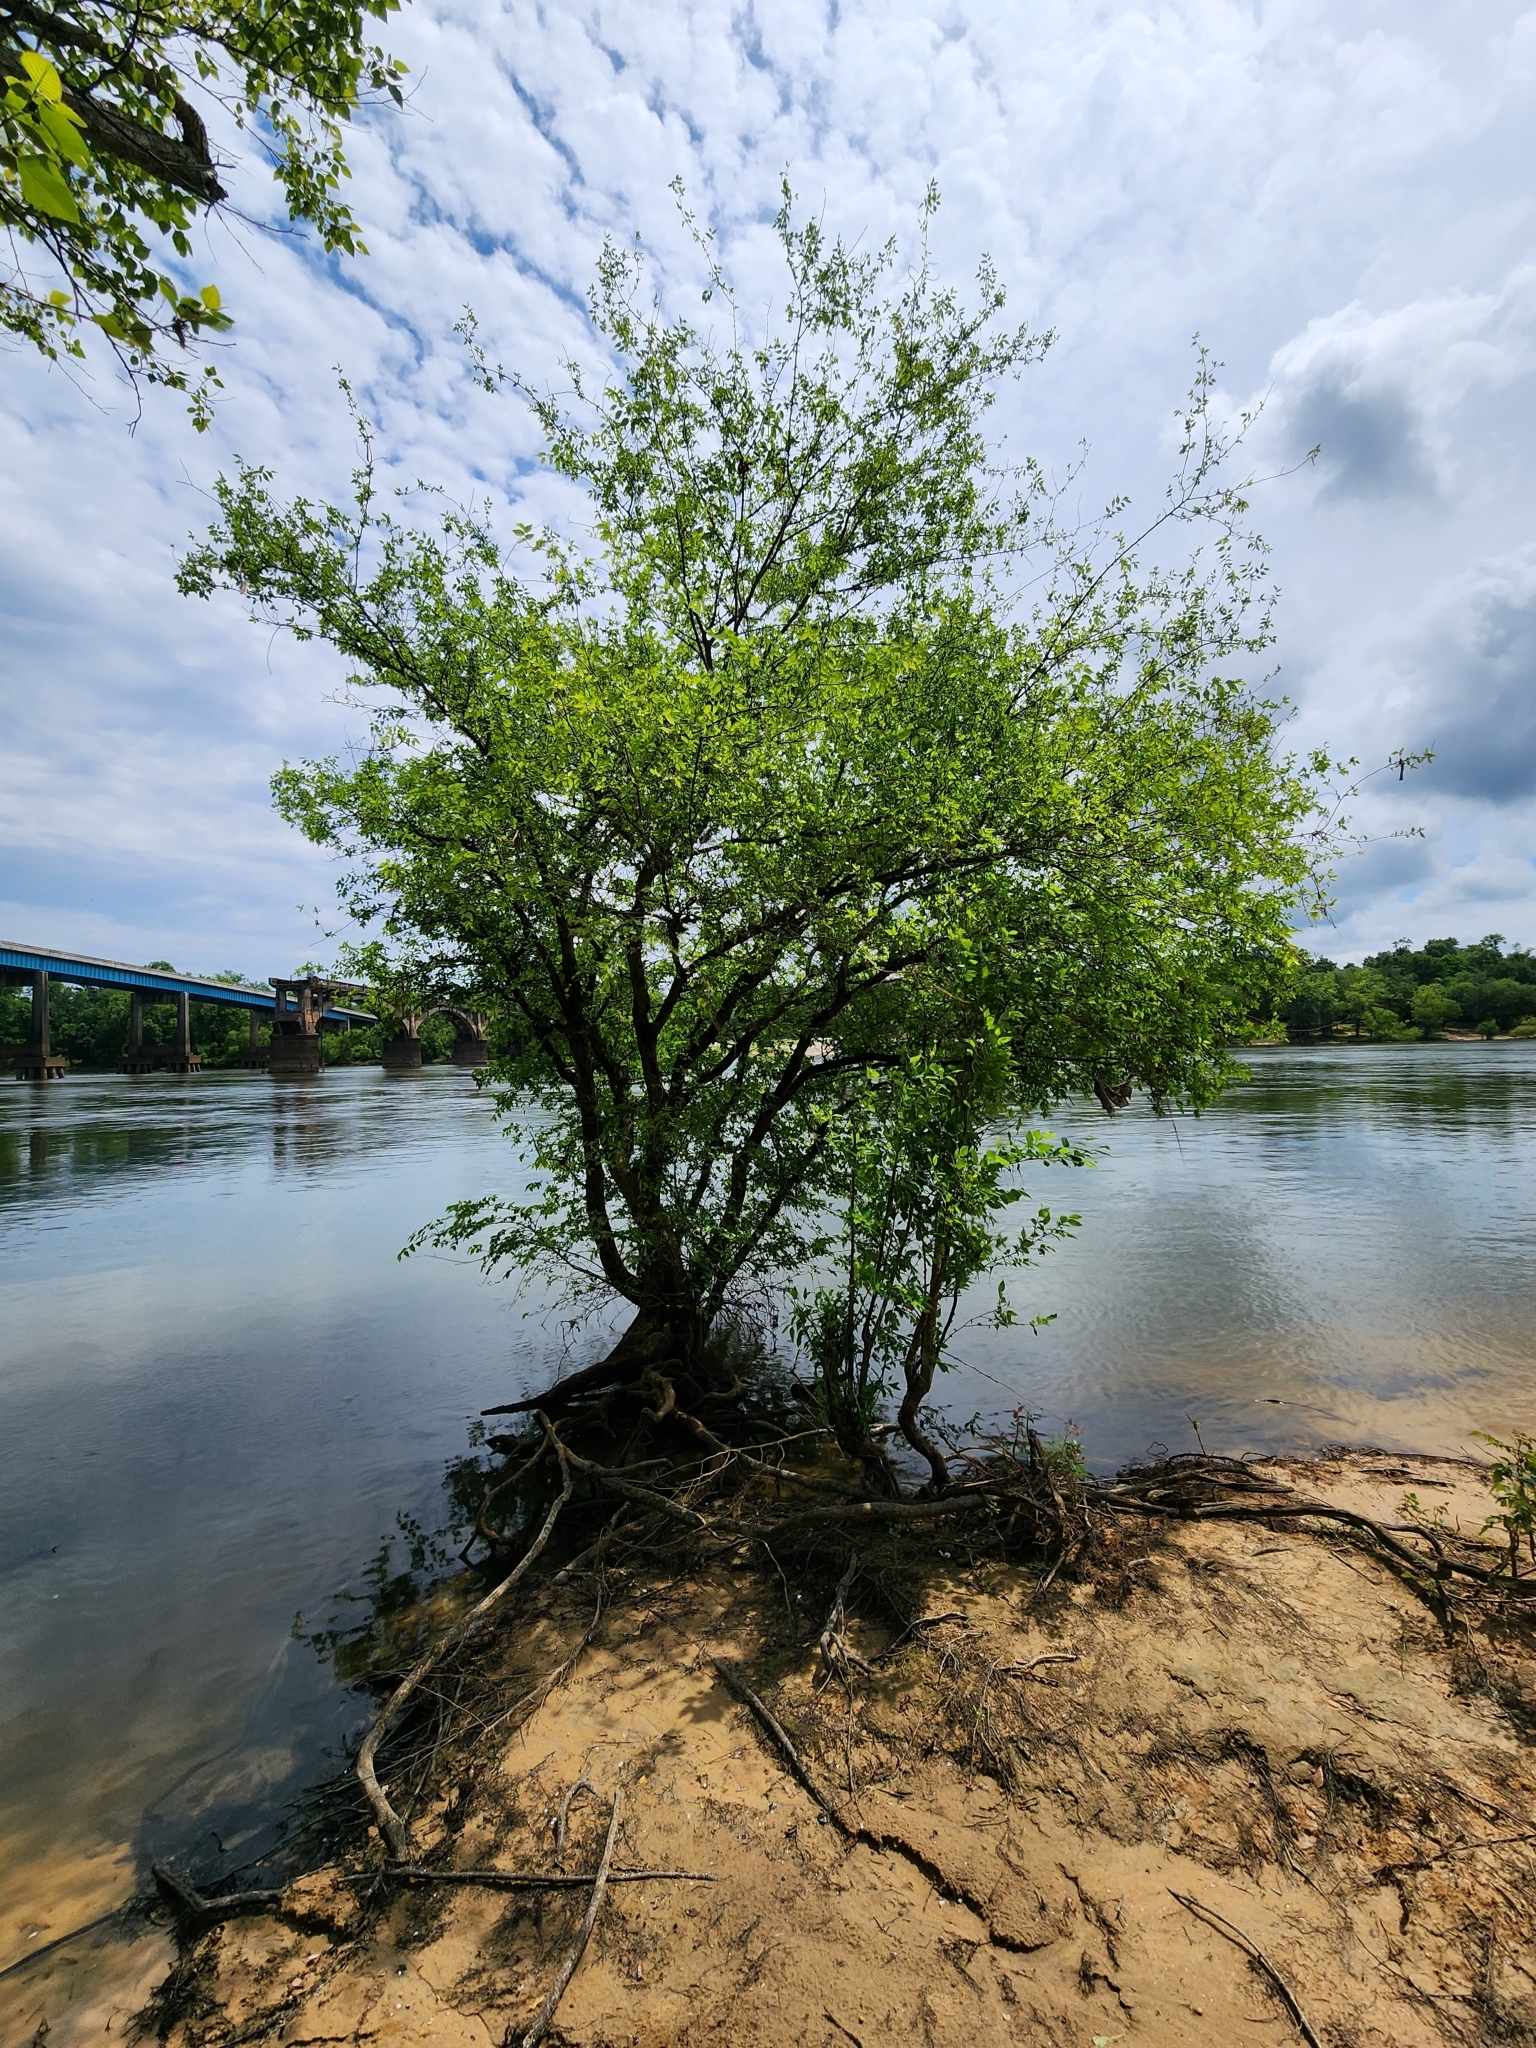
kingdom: Plantae
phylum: Tracheophyta
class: Magnoliopsida
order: Rosales
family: Ulmaceae
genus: Planera
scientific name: Planera aquatica
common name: Water-elm
